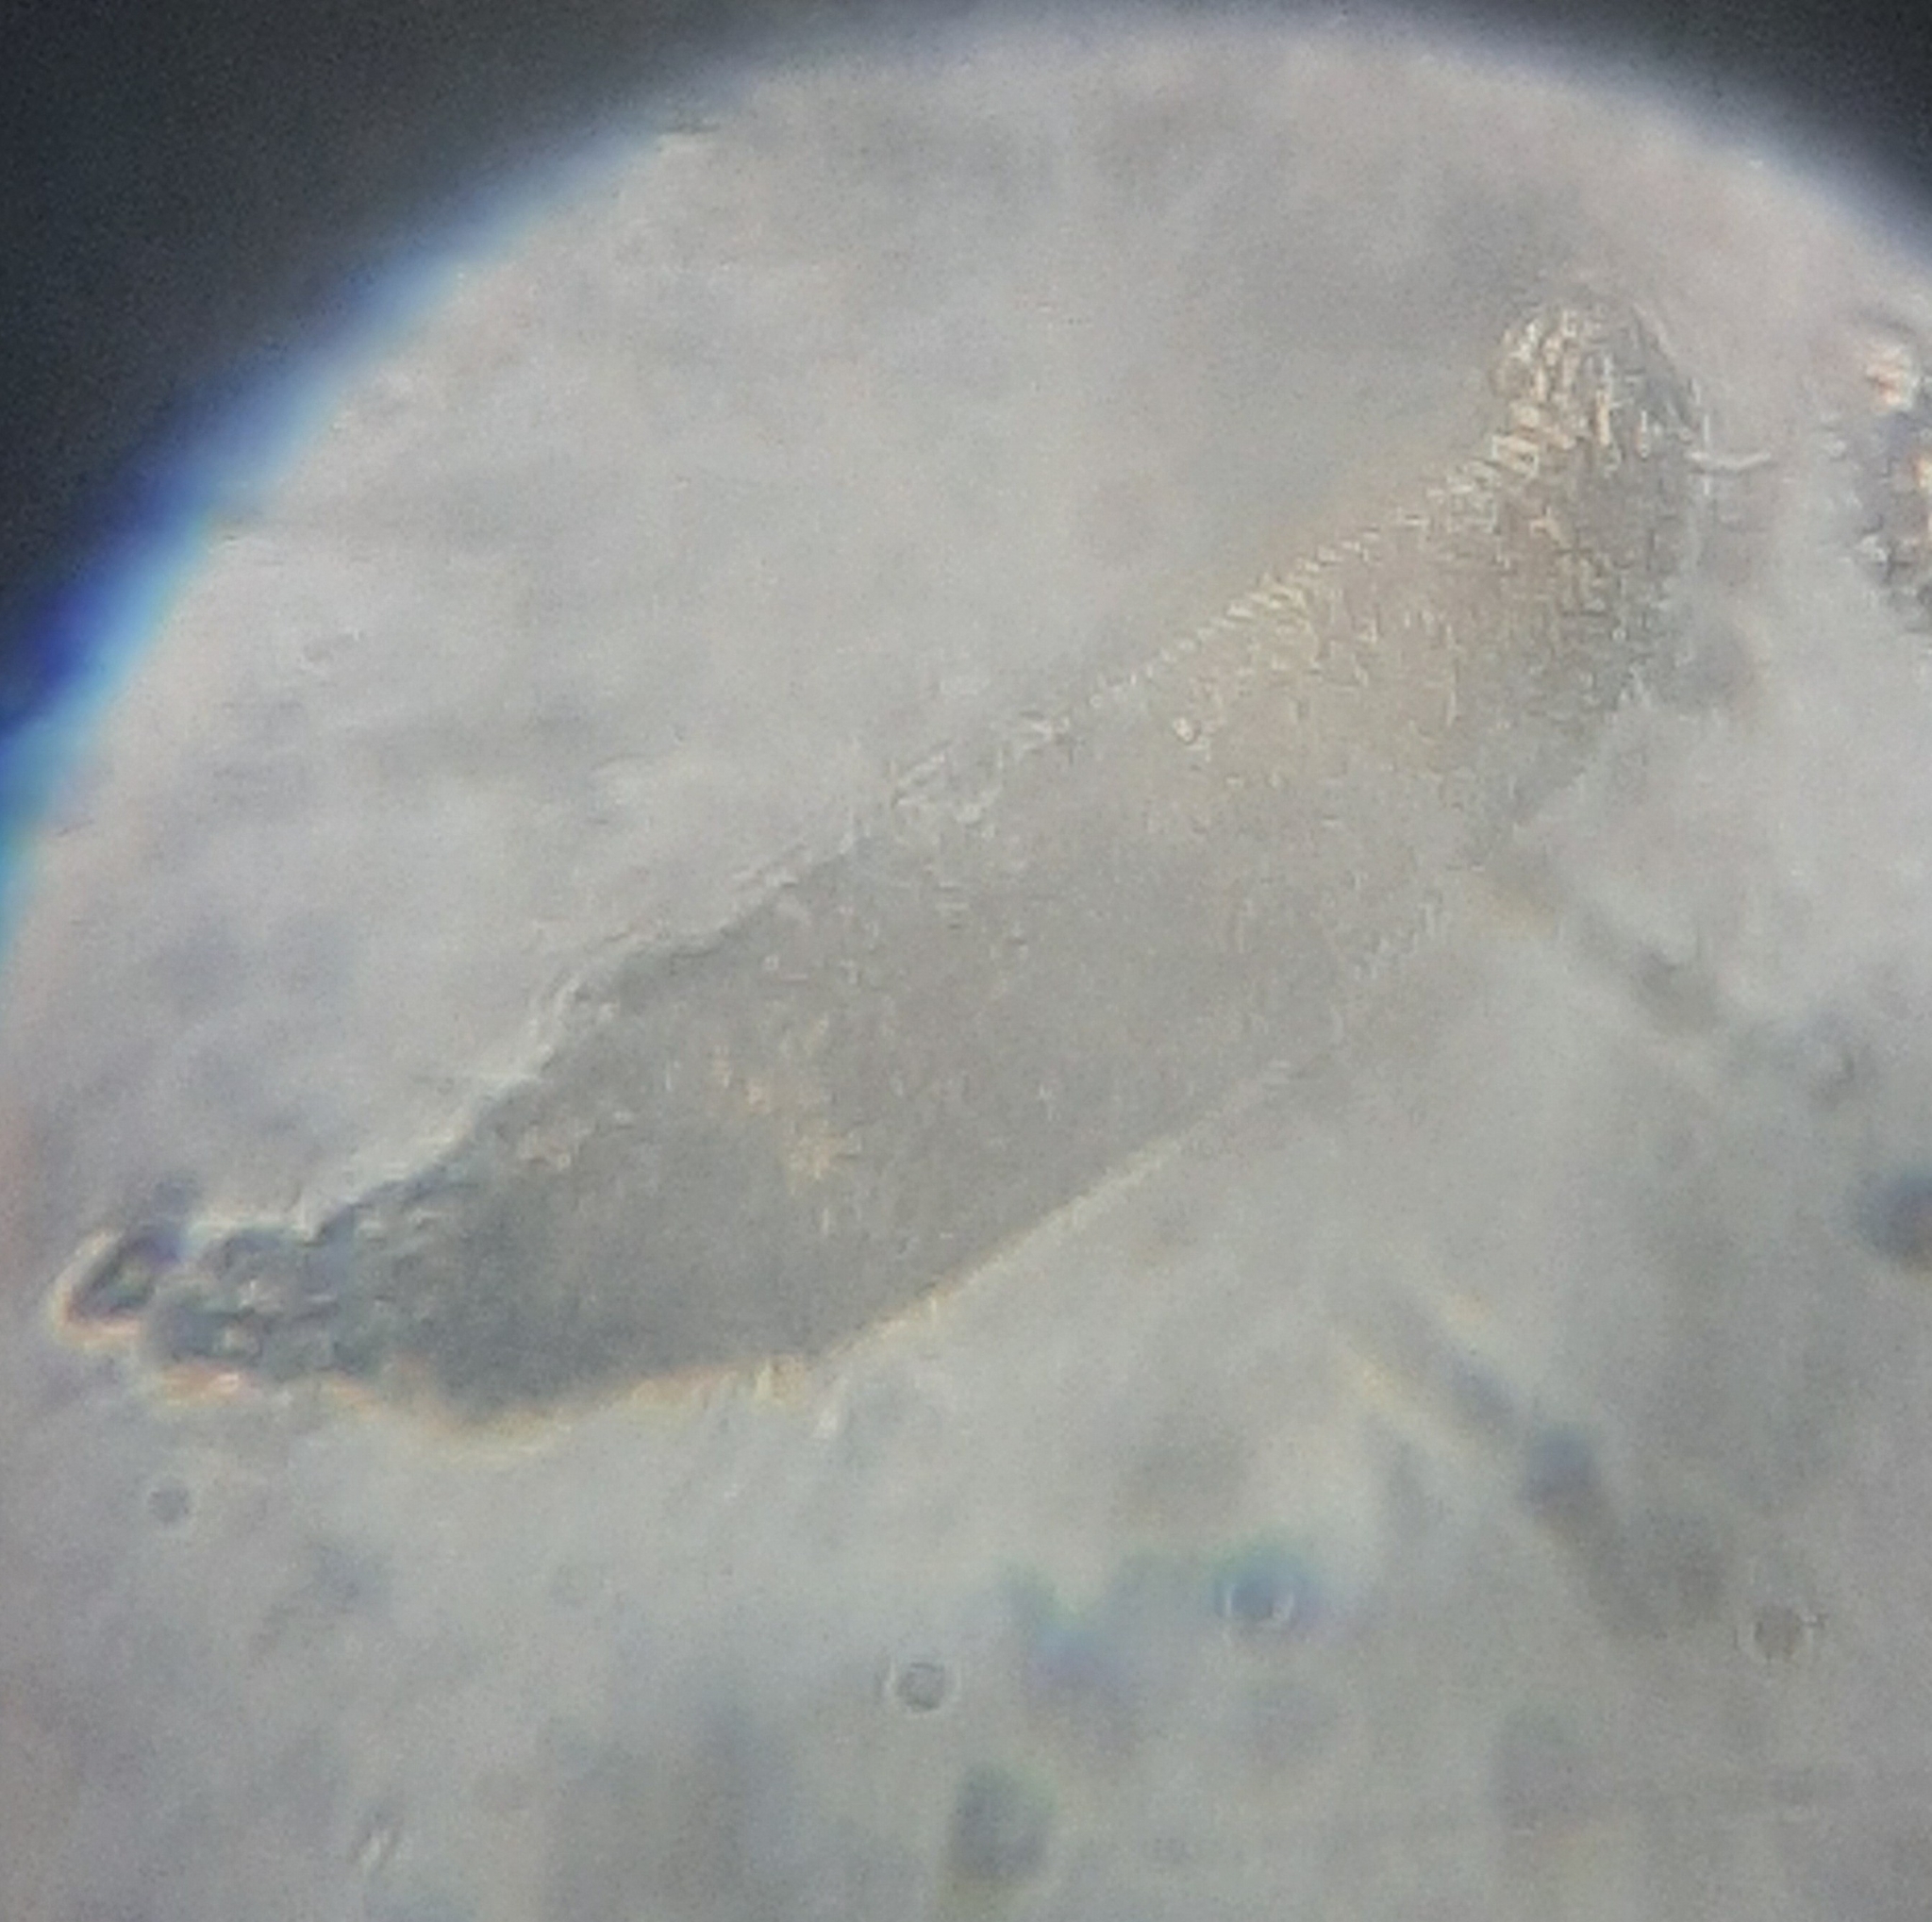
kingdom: Animalia
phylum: Arthropoda
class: Arachnida
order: Trombidiformes
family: Eriophyidae
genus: Eriophyes
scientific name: Eriophyes tiliae
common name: Red nail gall mite
